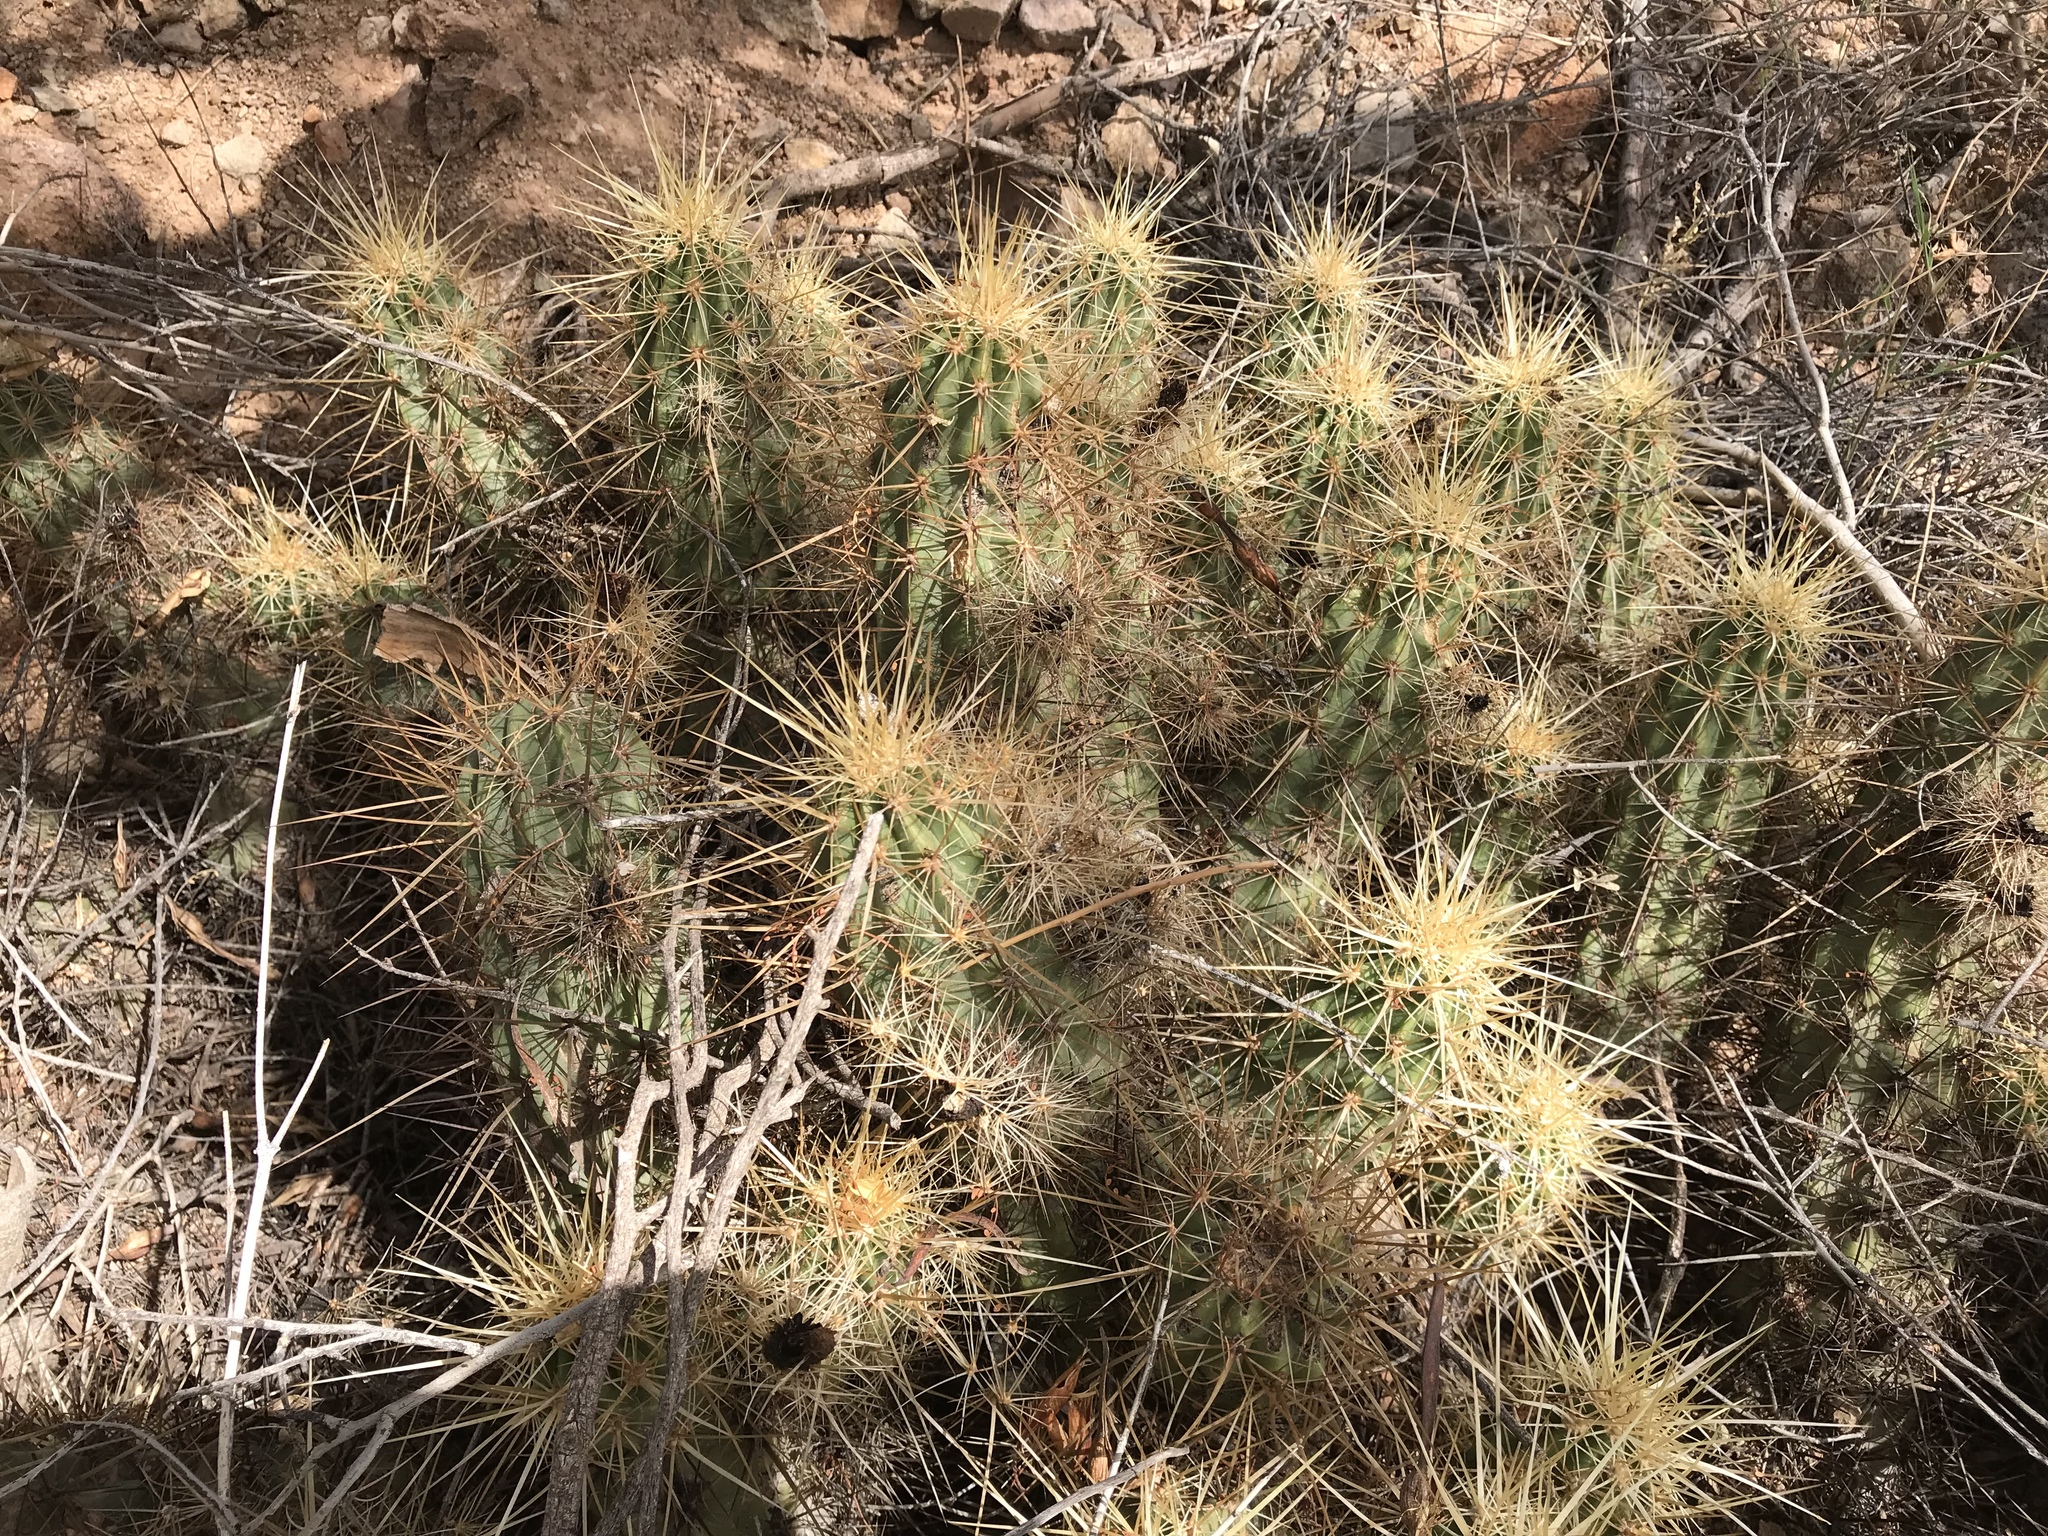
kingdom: Plantae
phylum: Tracheophyta
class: Magnoliopsida
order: Caryophyllales
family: Cactaceae
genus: Echinocereus
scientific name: Echinocereus nicholii
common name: Nichol's hedgehog cactus
